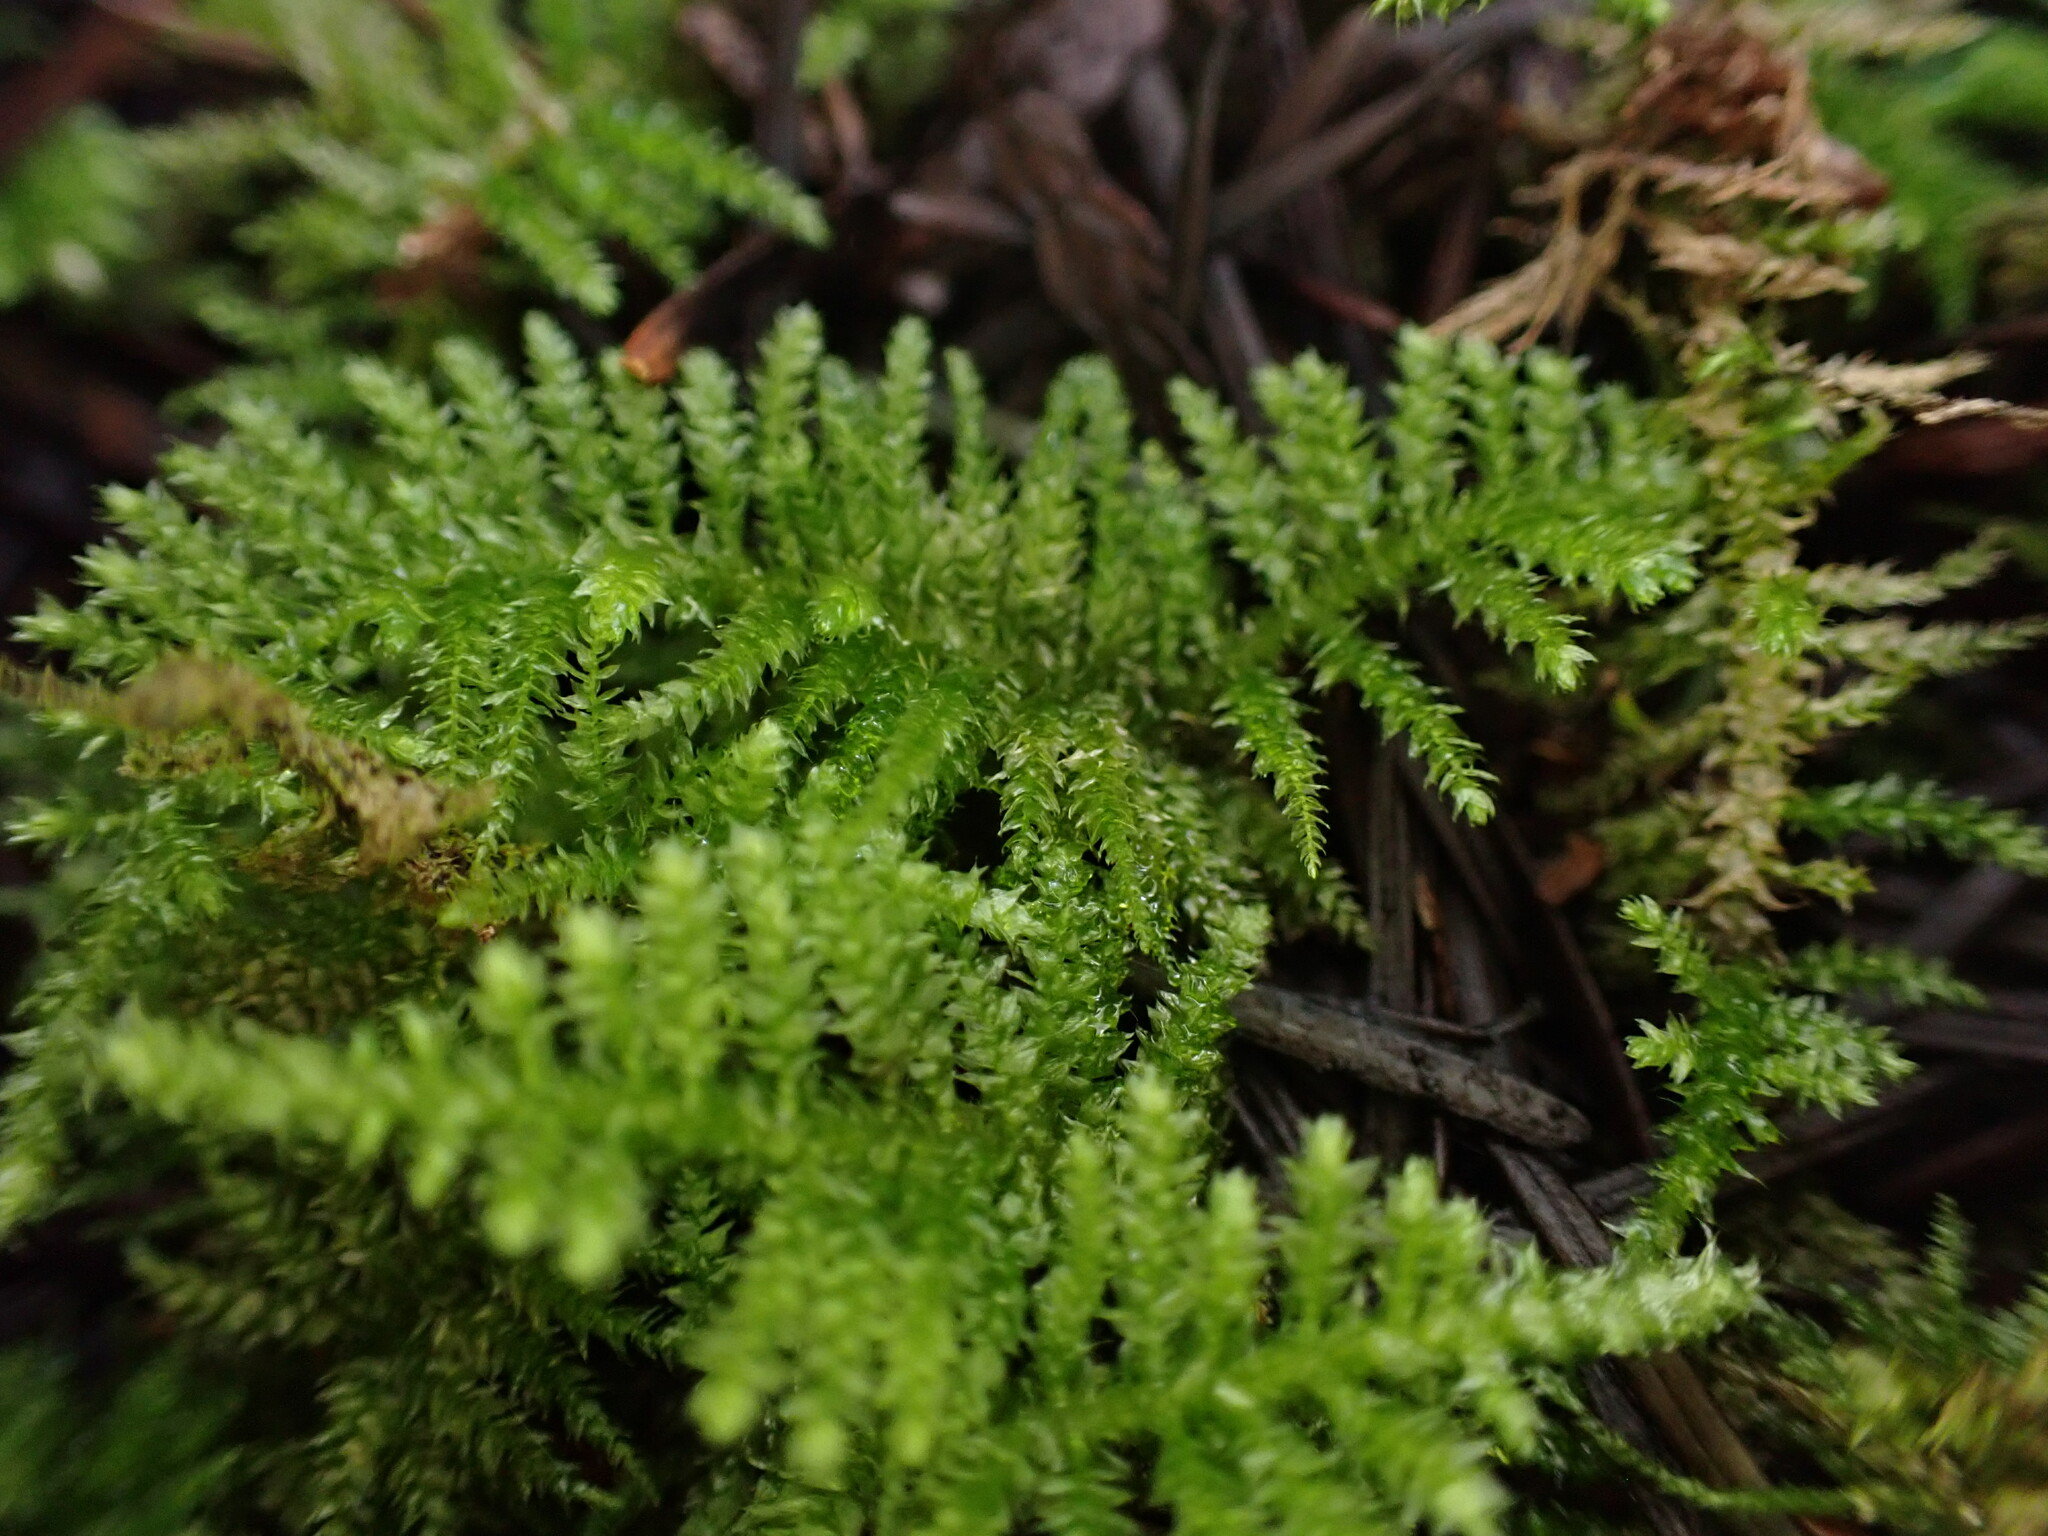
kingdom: Plantae
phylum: Bryophyta
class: Bryopsida
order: Hypnales
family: Brachytheciaceae
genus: Kindbergia
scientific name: Kindbergia oregana
